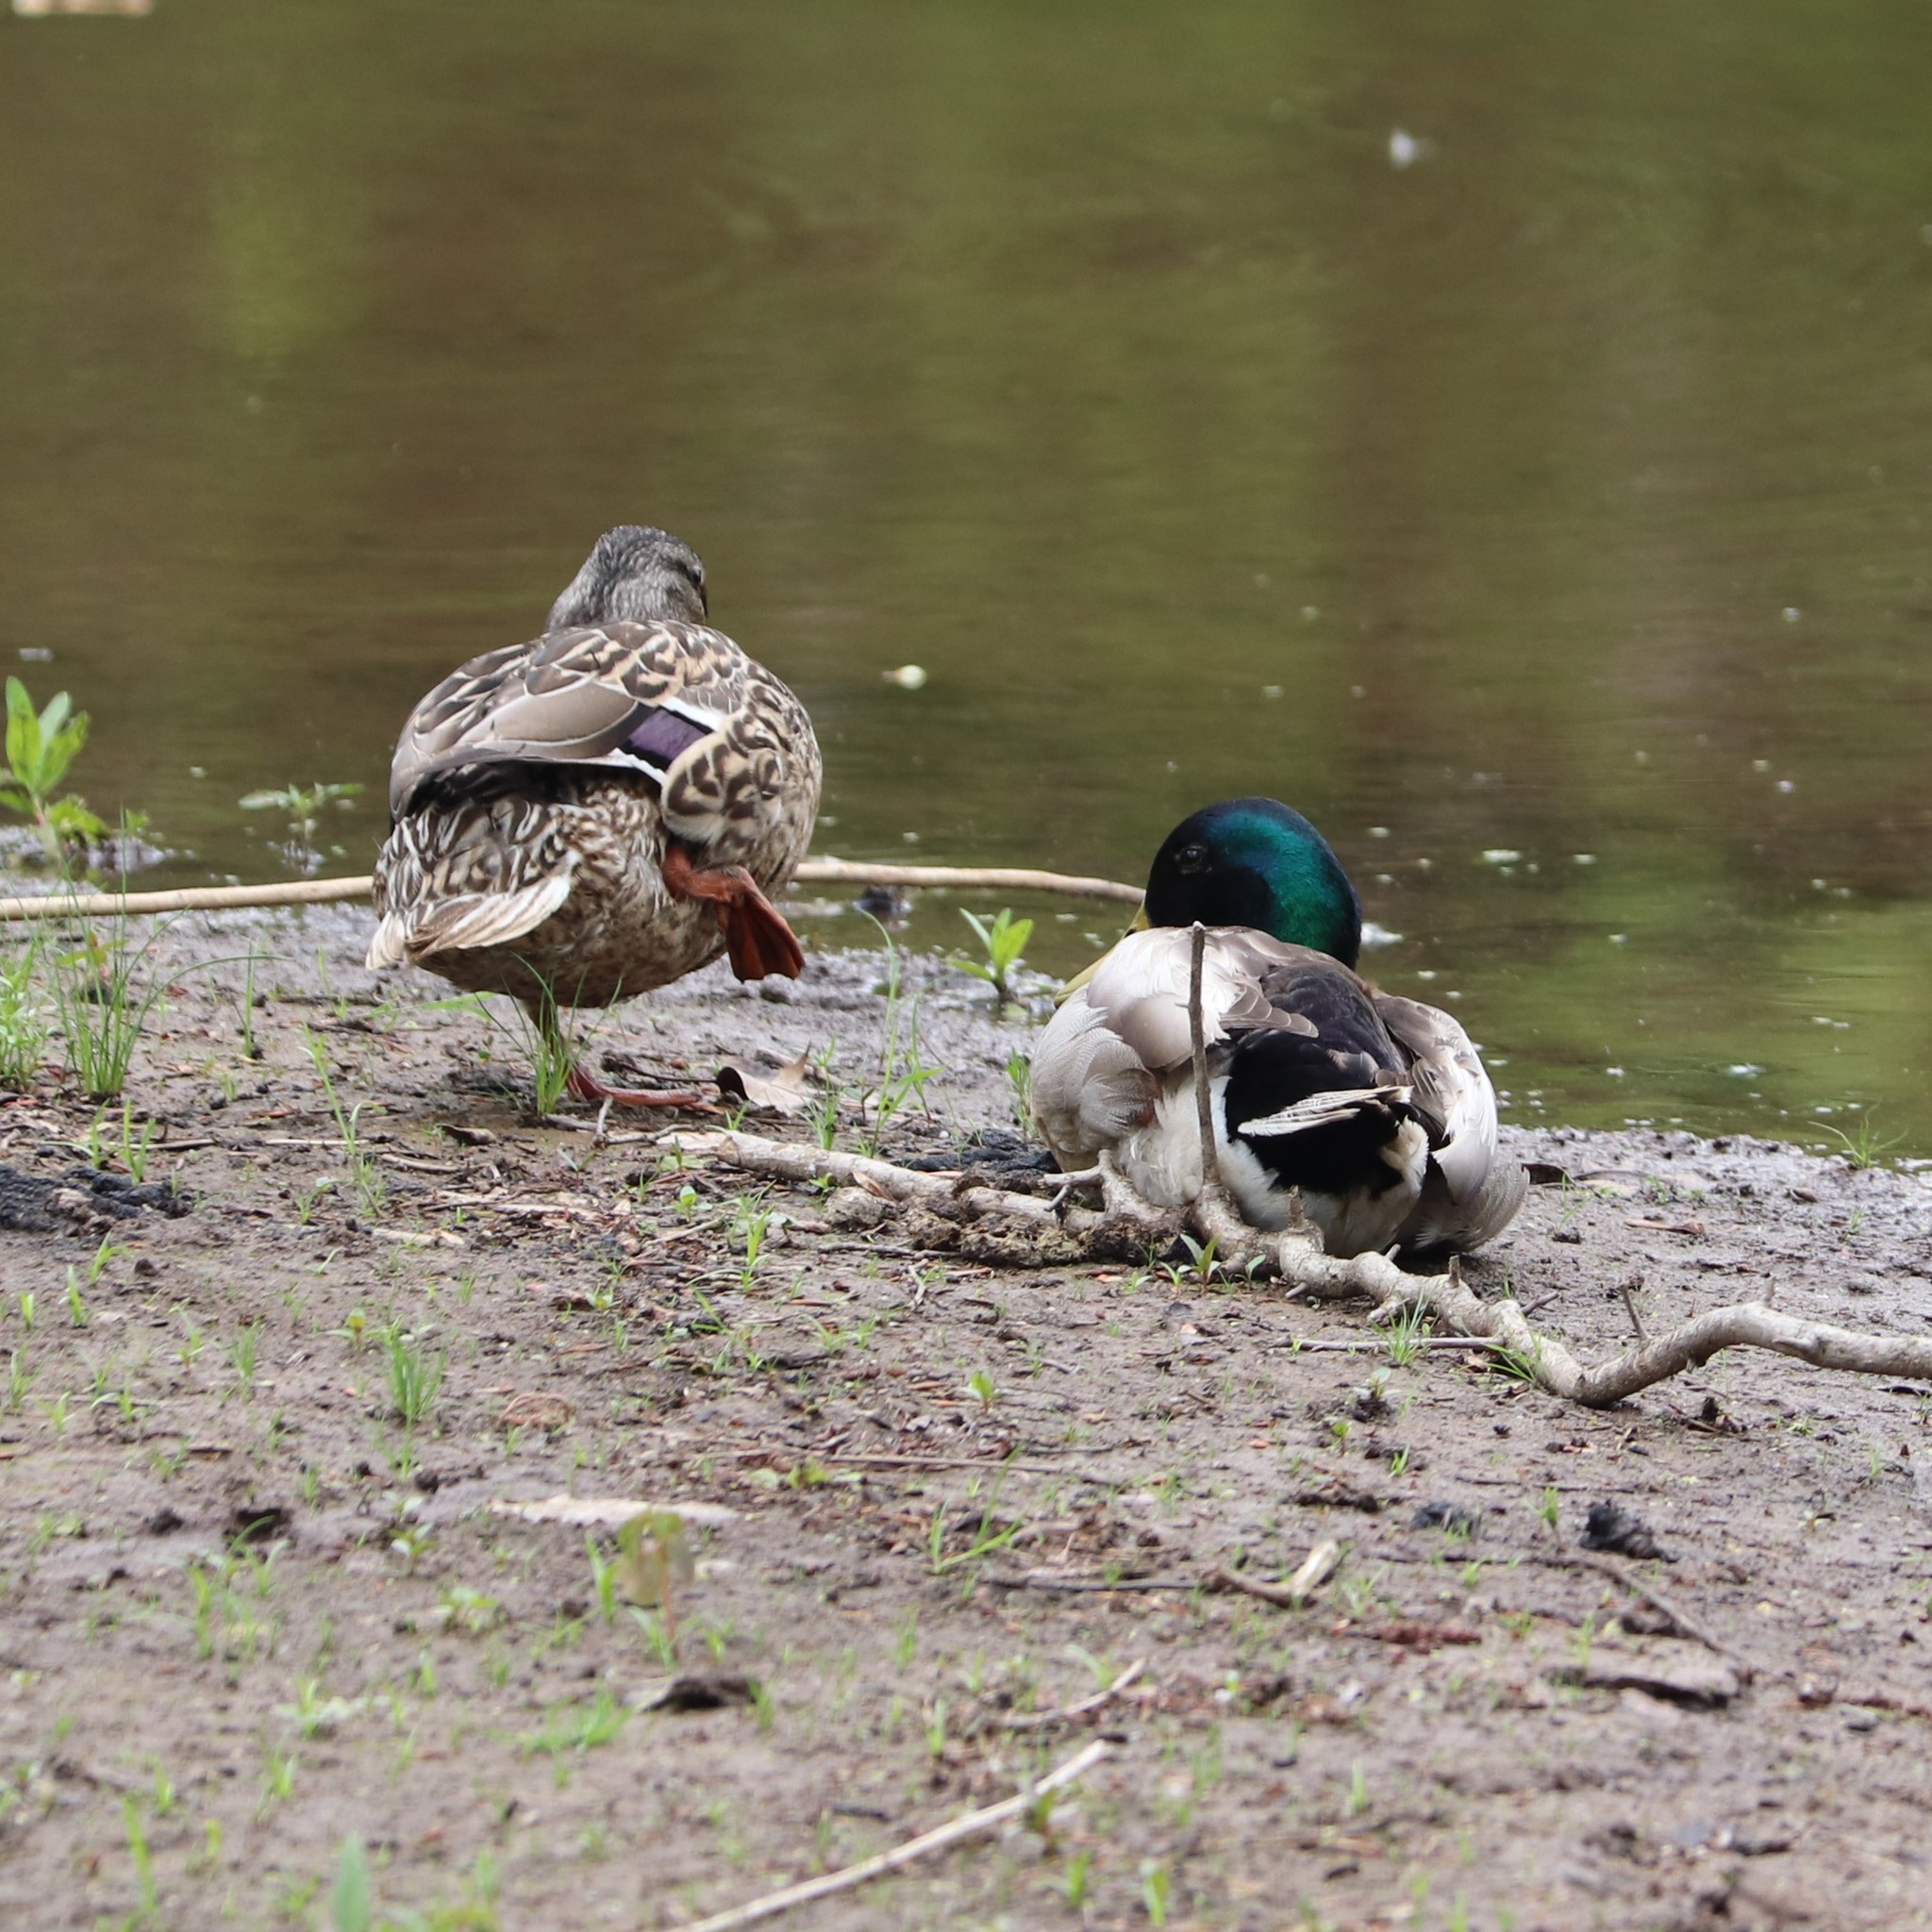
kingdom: Animalia
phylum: Chordata
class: Aves
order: Anseriformes
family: Anatidae
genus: Anas
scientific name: Anas platyrhynchos
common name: Mallard
